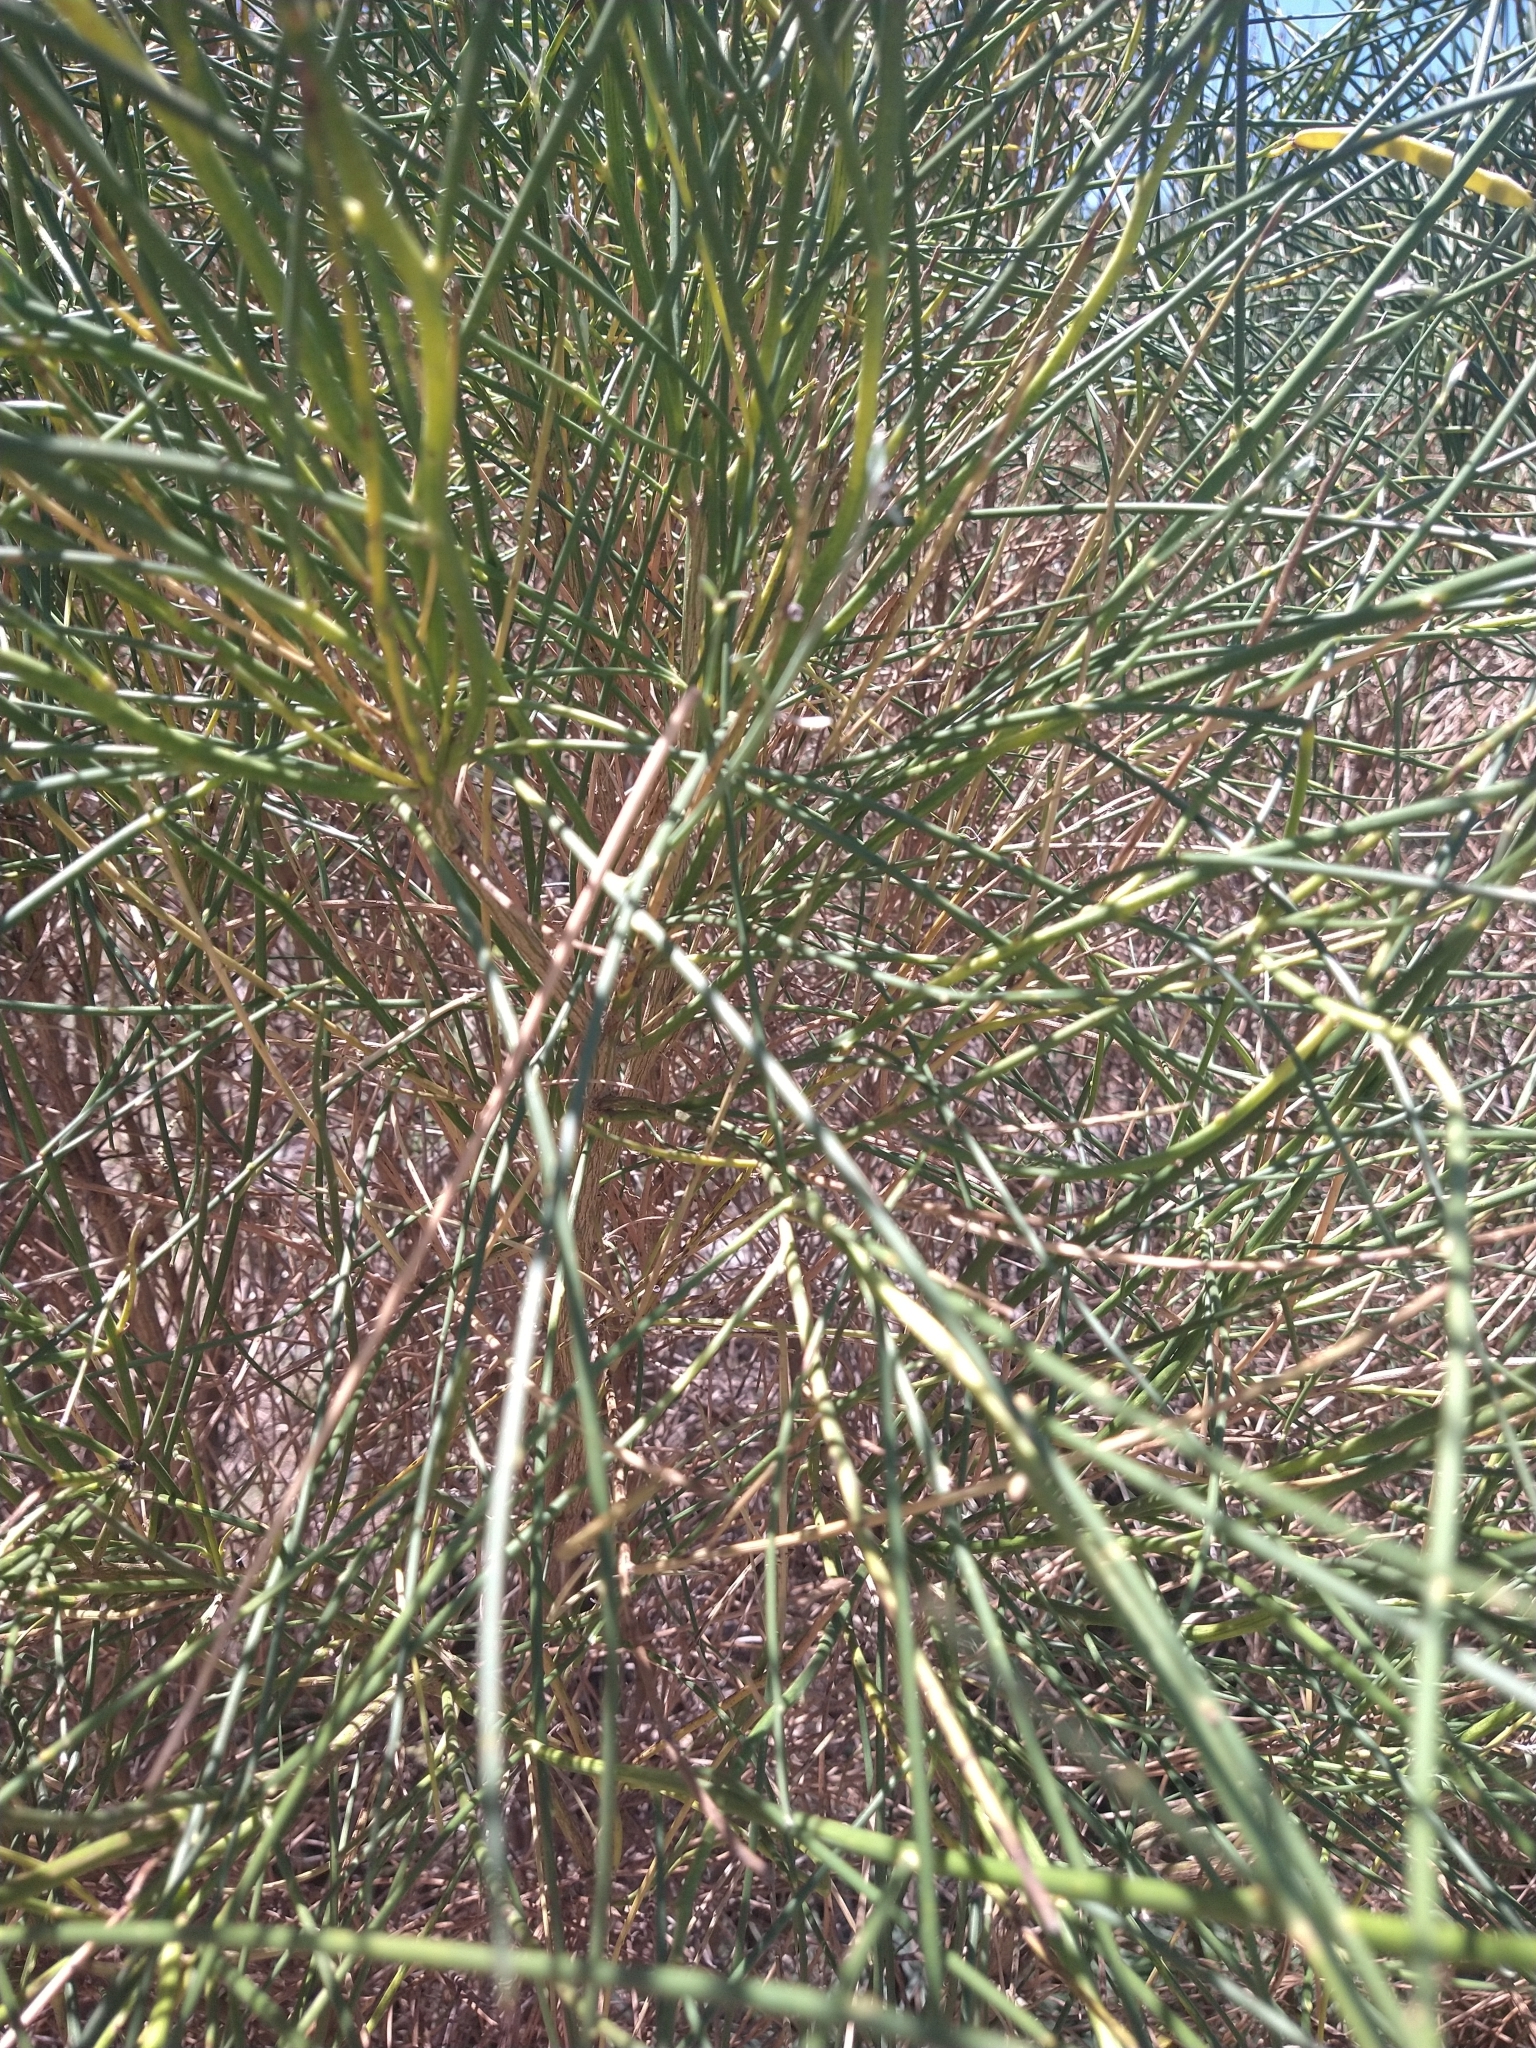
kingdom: Plantae
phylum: Tracheophyta
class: Magnoliopsida
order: Fabales
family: Fabaceae
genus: Spartium
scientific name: Spartium junceum
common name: Spanish broom
